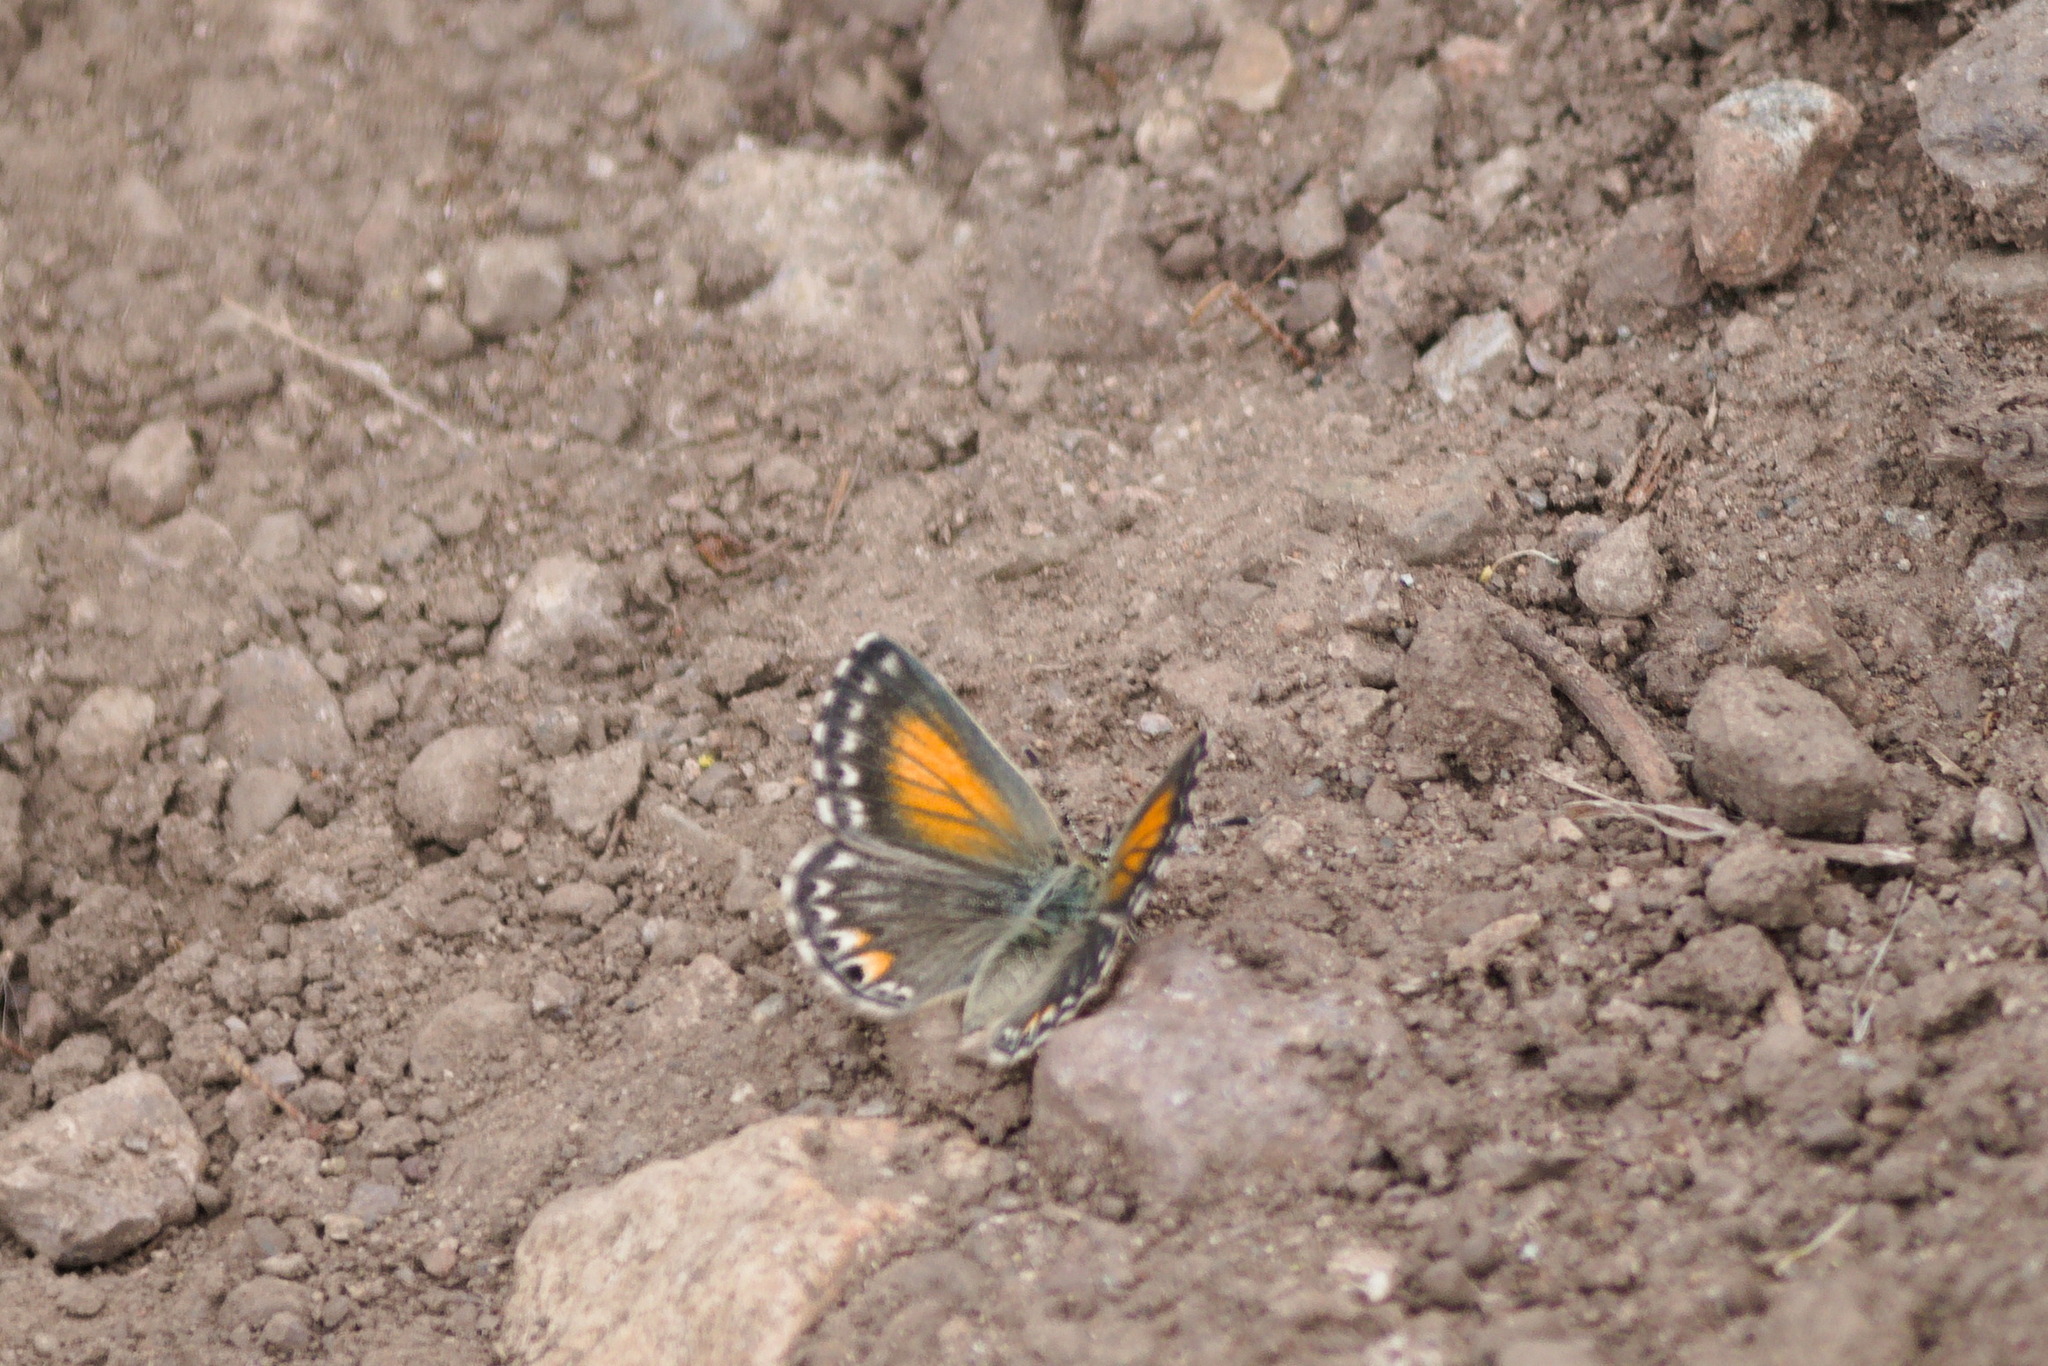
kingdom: Animalia
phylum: Arthropoda
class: Insecta
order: Lepidoptera
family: Lycaenidae
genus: Pseudolucia
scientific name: Pseudolucia chilensis
